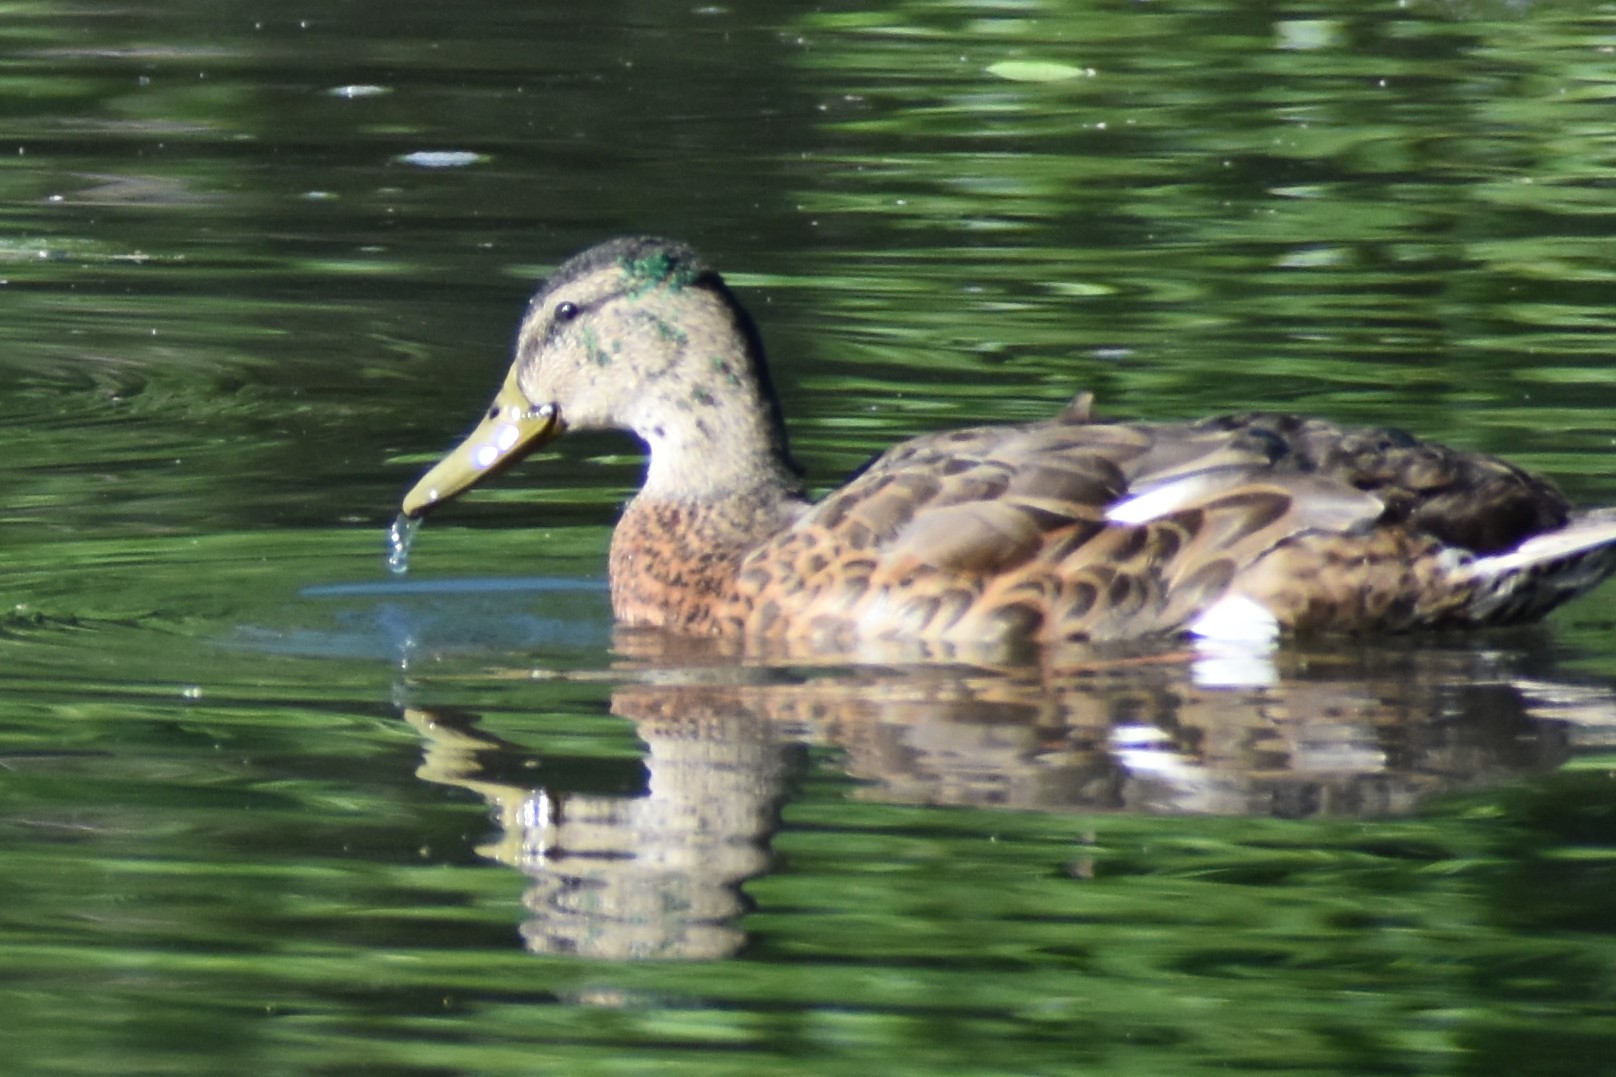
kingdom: Animalia
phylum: Chordata
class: Aves
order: Anseriformes
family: Anatidae
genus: Anas
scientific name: Anas platyrhynchos
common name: Mallard
